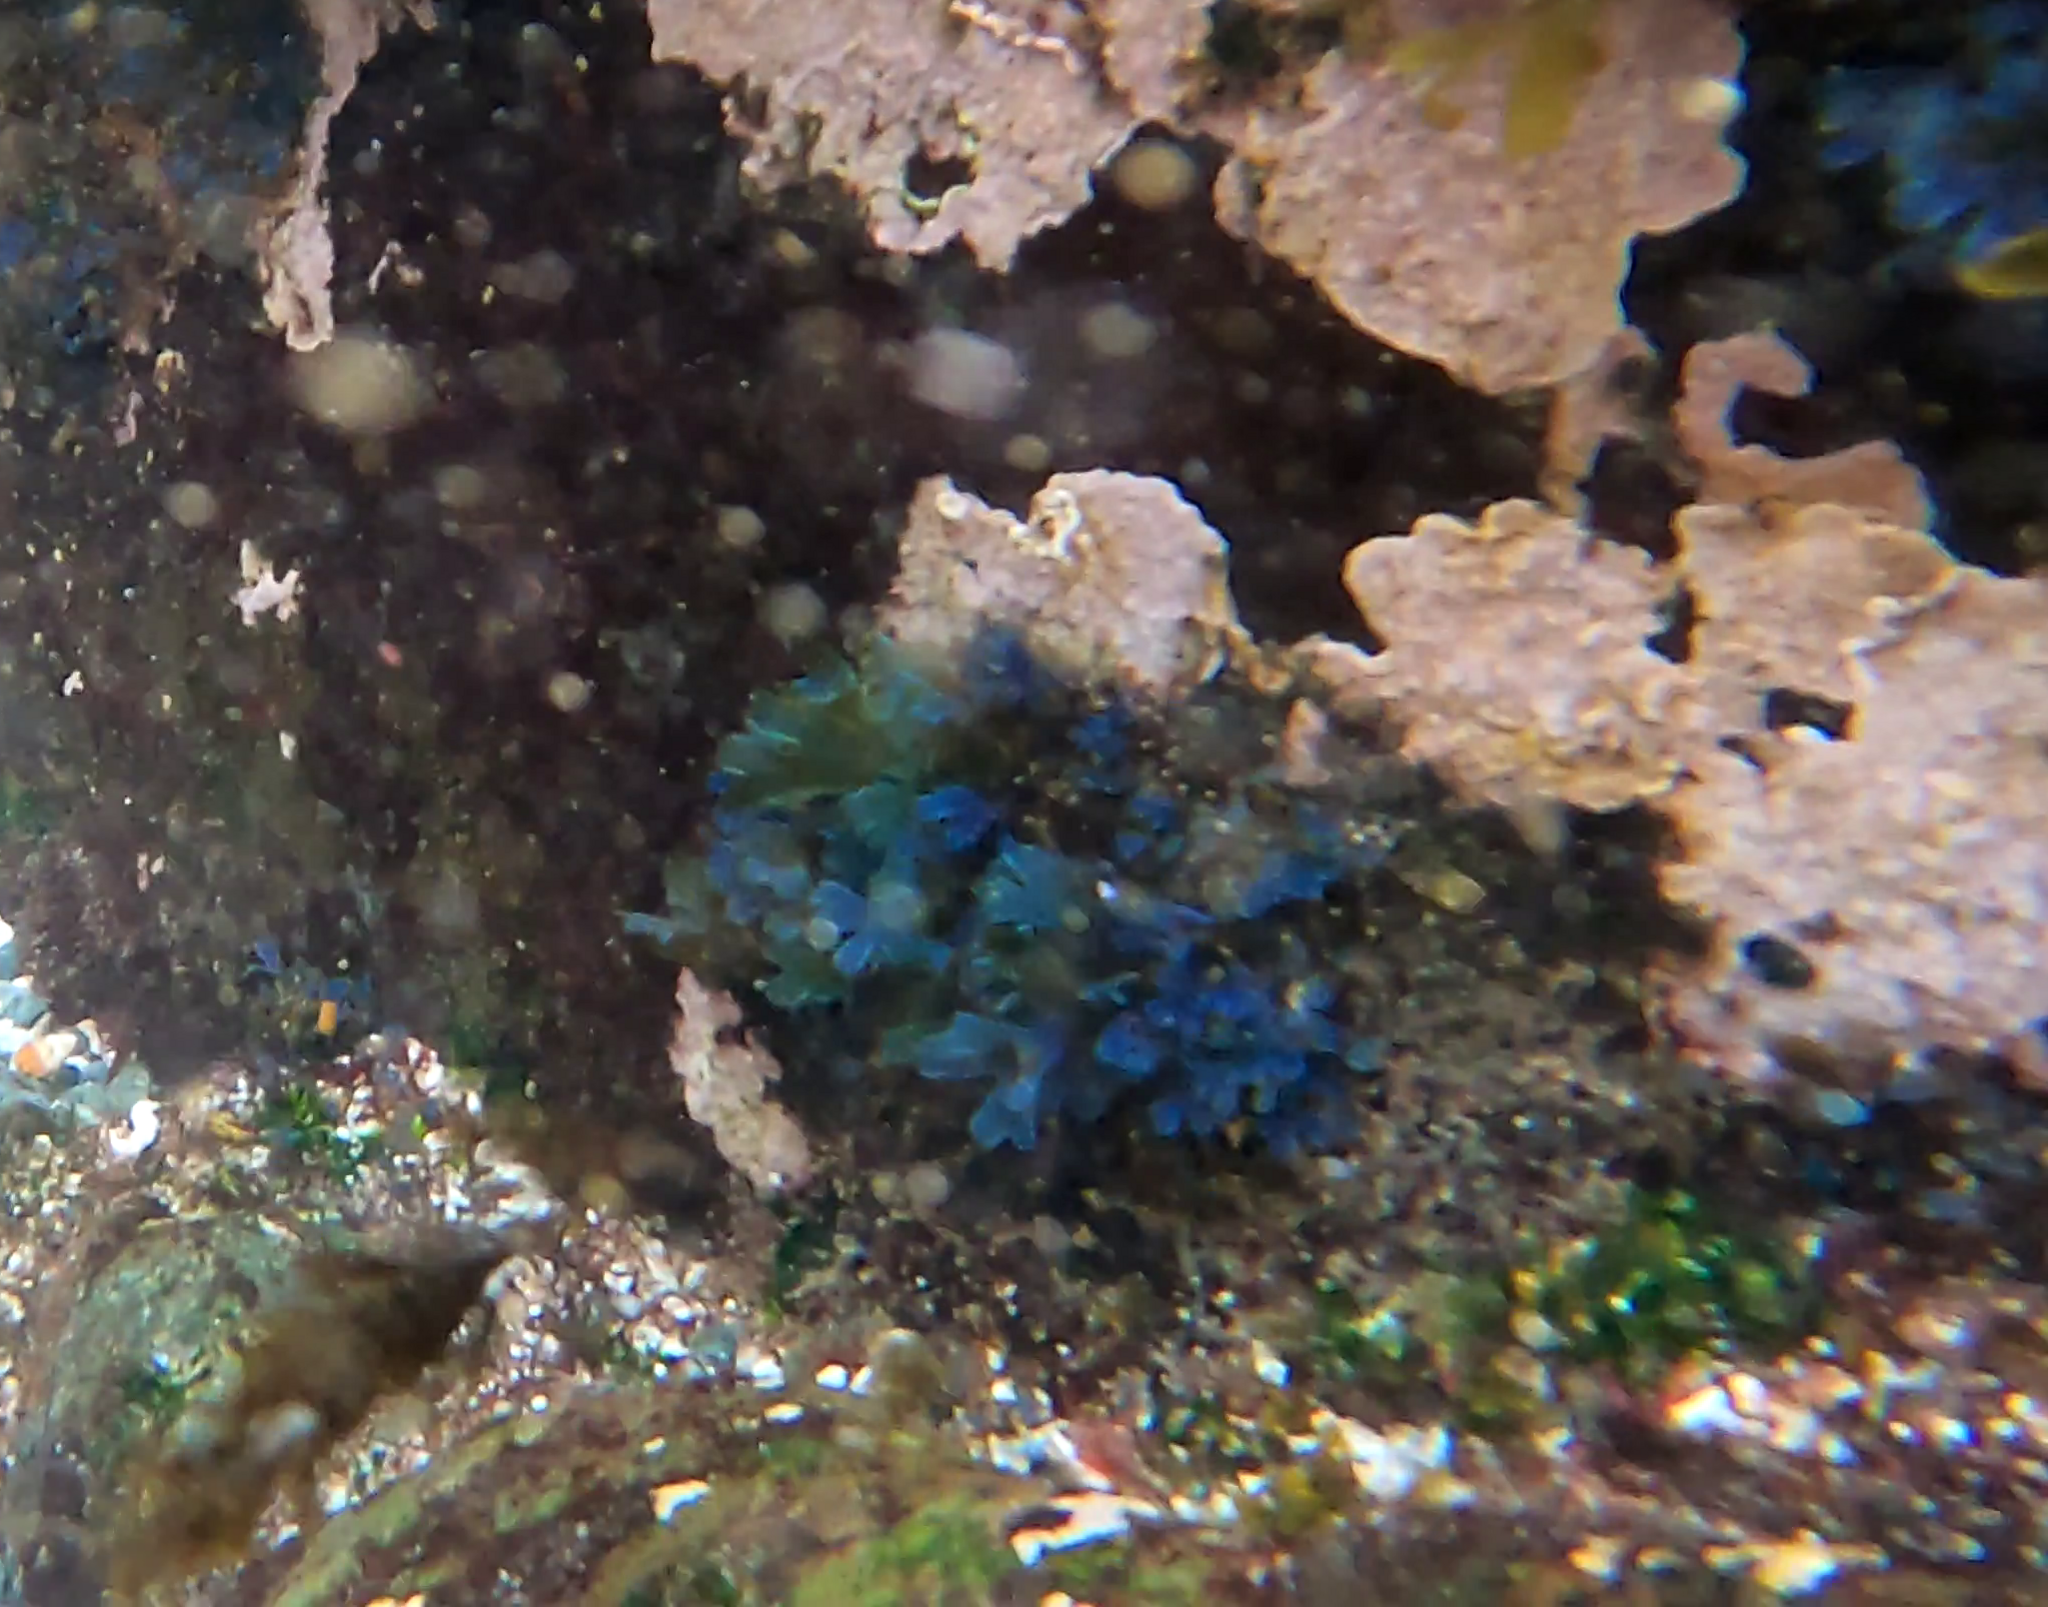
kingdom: Chromista
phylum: Ochrophyta
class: Phaeophyceae
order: Dictyotales
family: Dictyotaceae
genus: Dictyota
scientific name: Dictyota dichotoma
